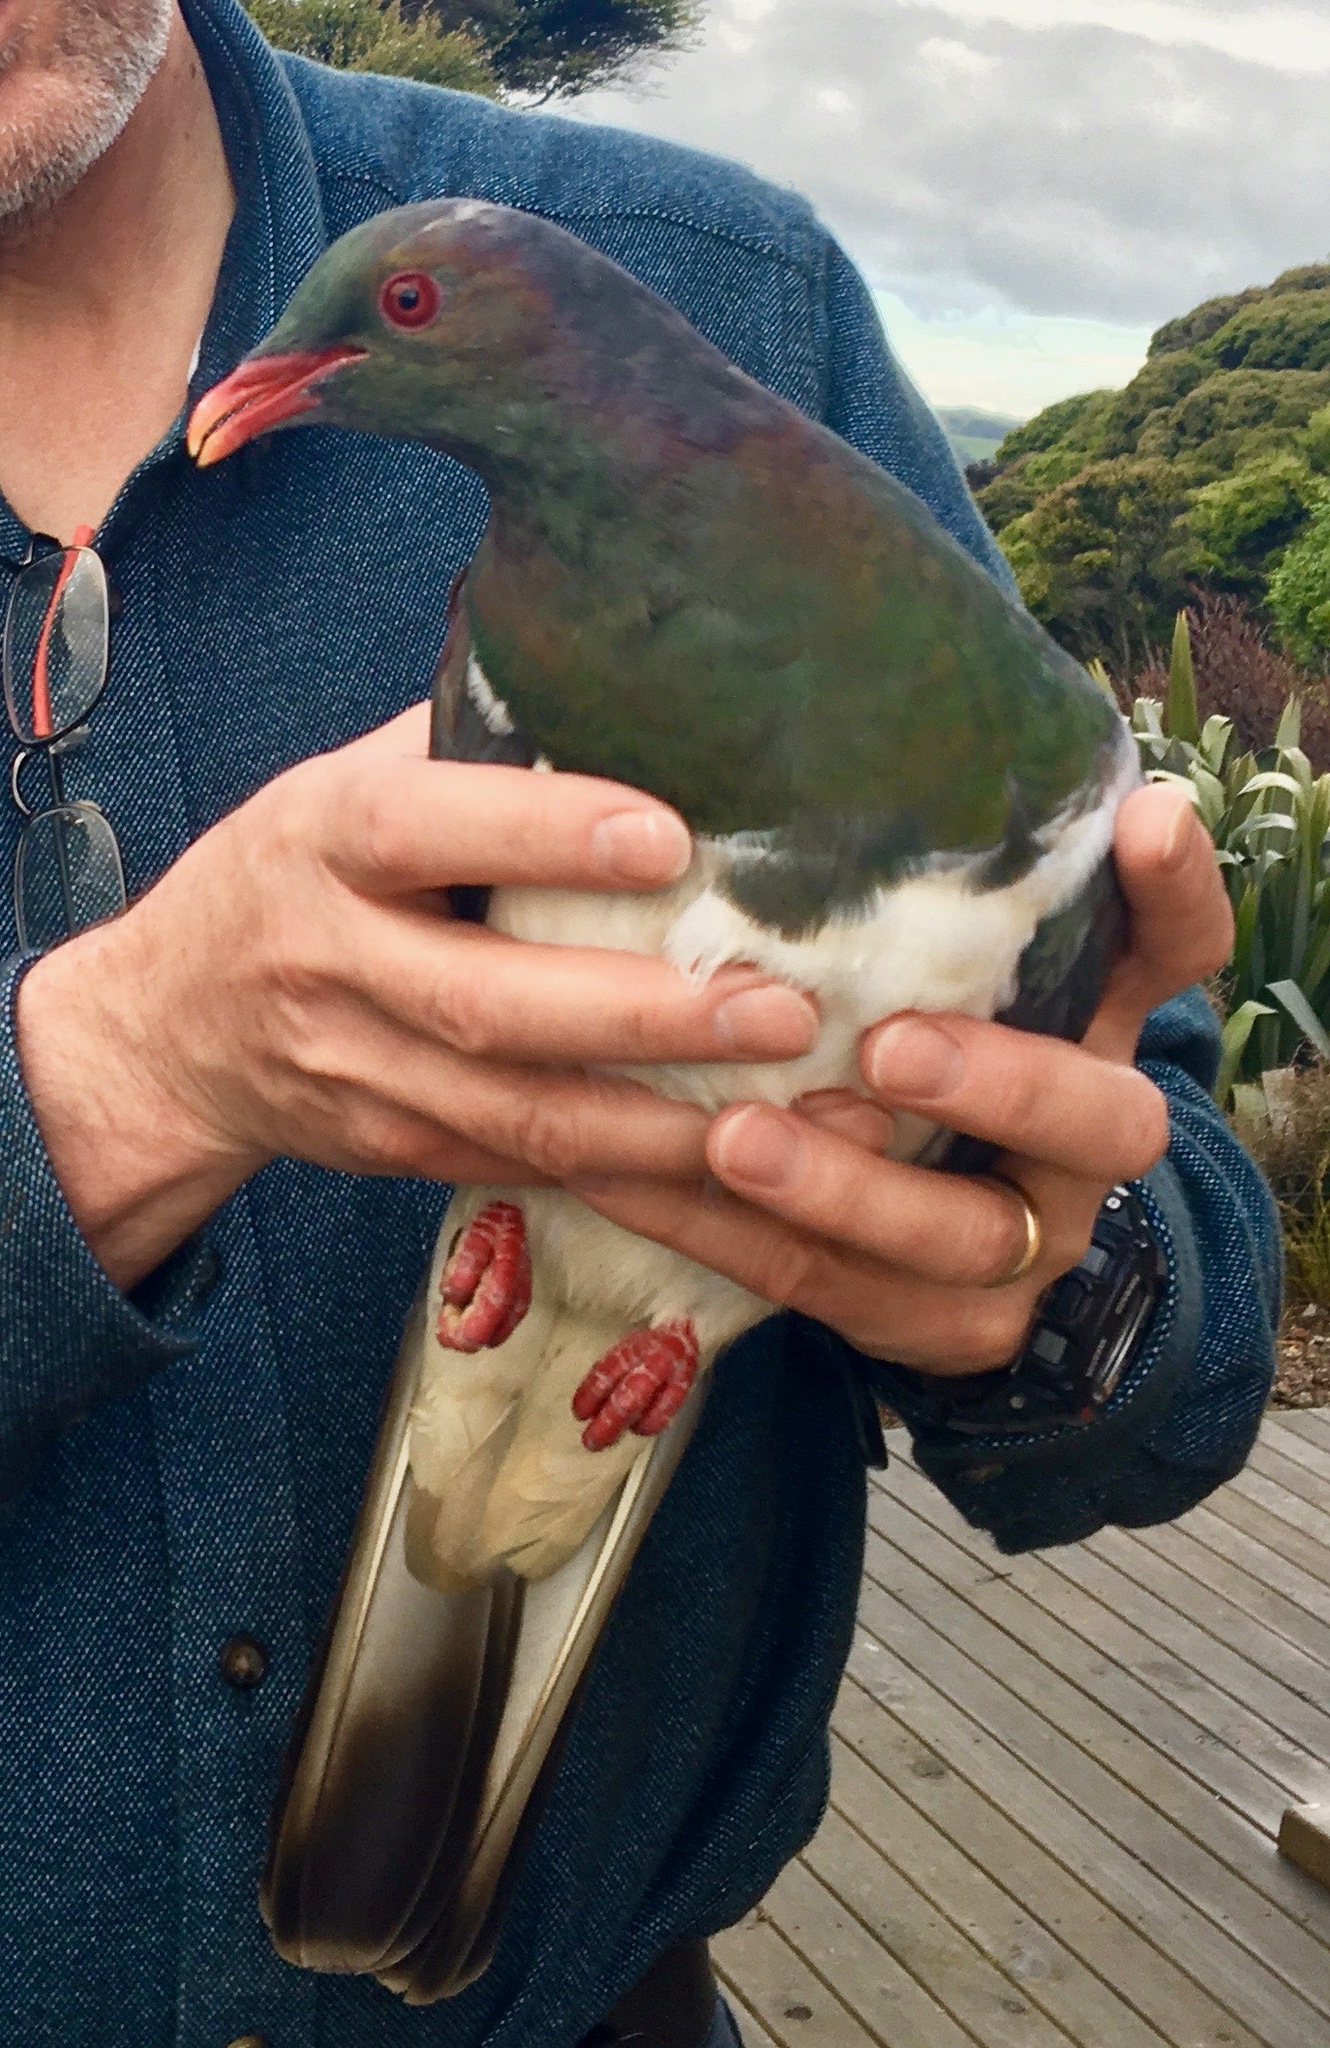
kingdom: Animalia
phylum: Chordata
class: Aves
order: Columbiformes
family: Columbidae
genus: Hemiphaga
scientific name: Hemiphaga novaeseelandiae
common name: New zealand pigeon
